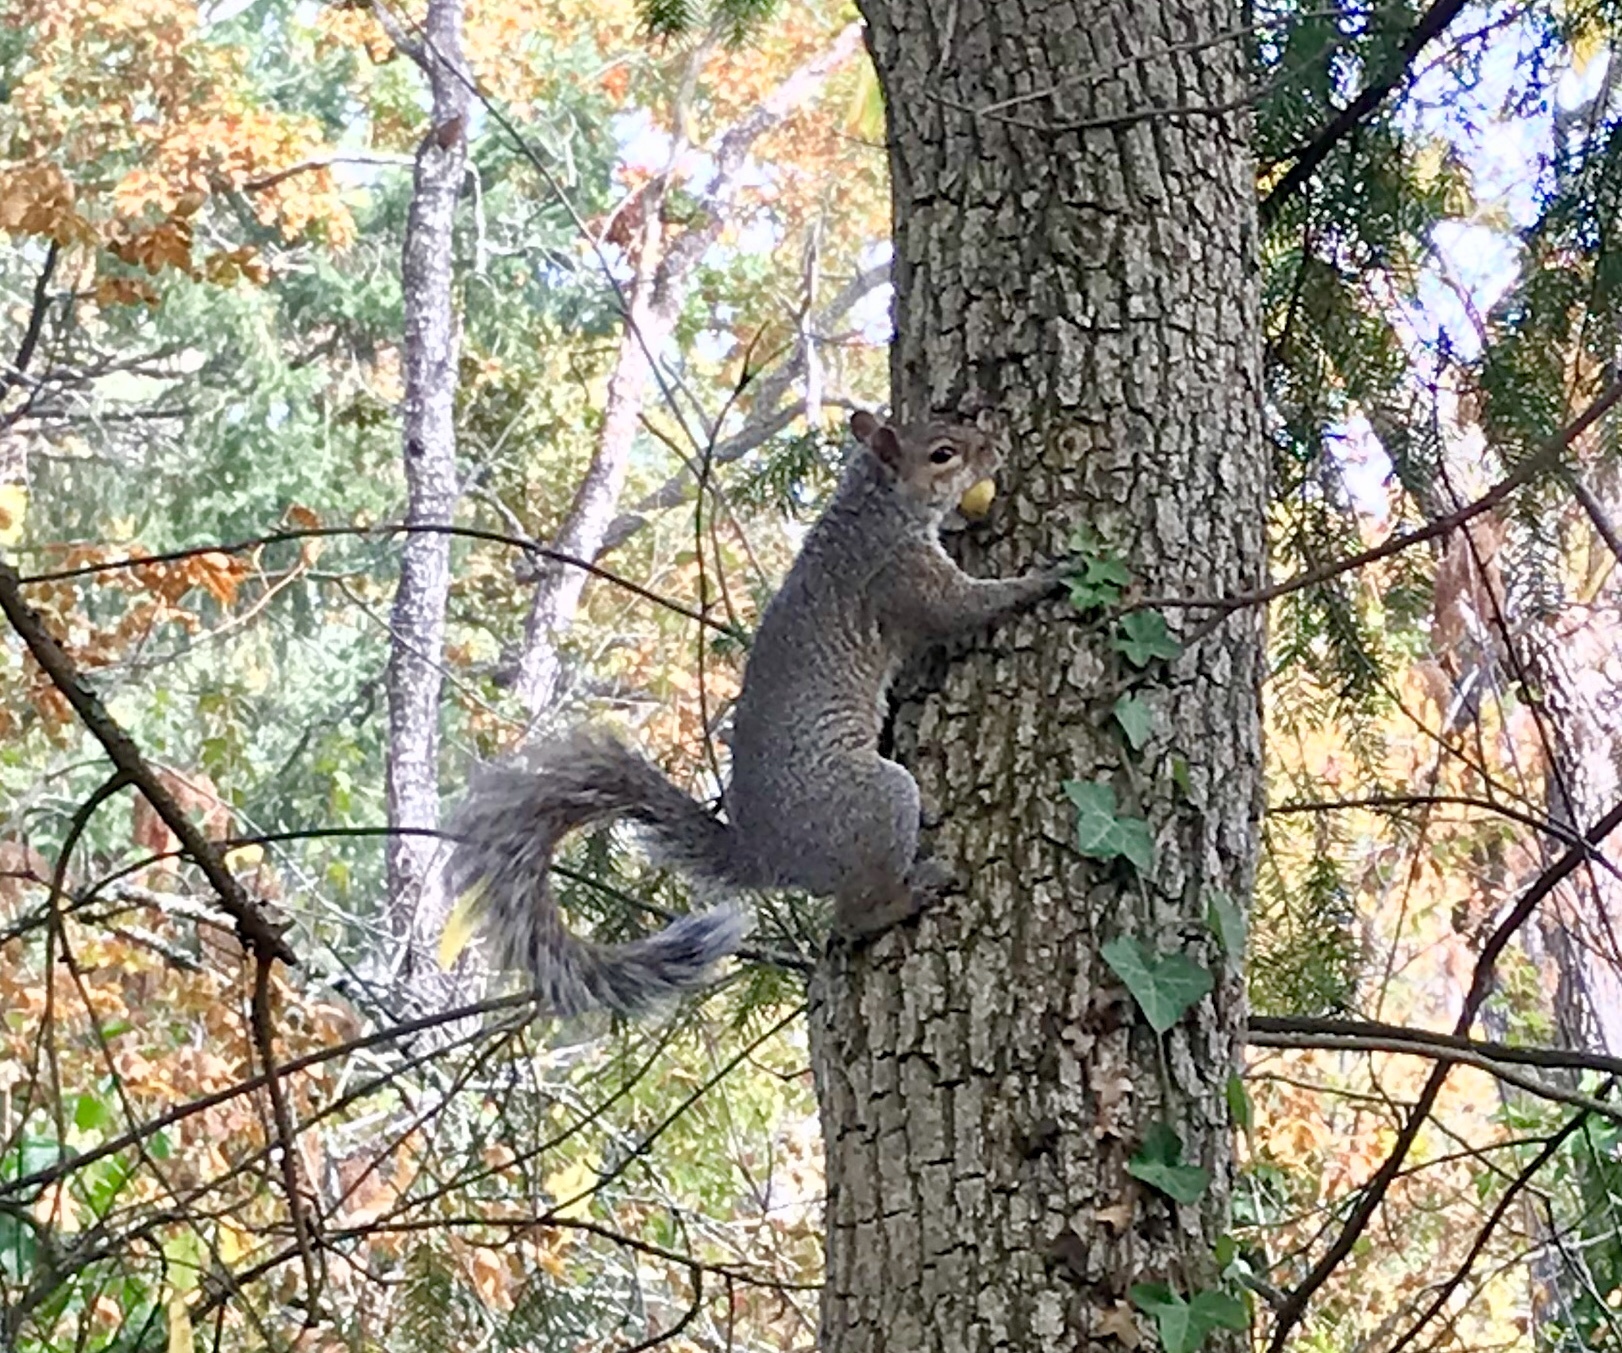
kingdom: Animalia
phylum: Chordata
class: Mammalia
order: Rodentia
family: Sciuridae
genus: Sciurus
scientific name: Sciurus carolinensis
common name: Eastern gray squirrel
